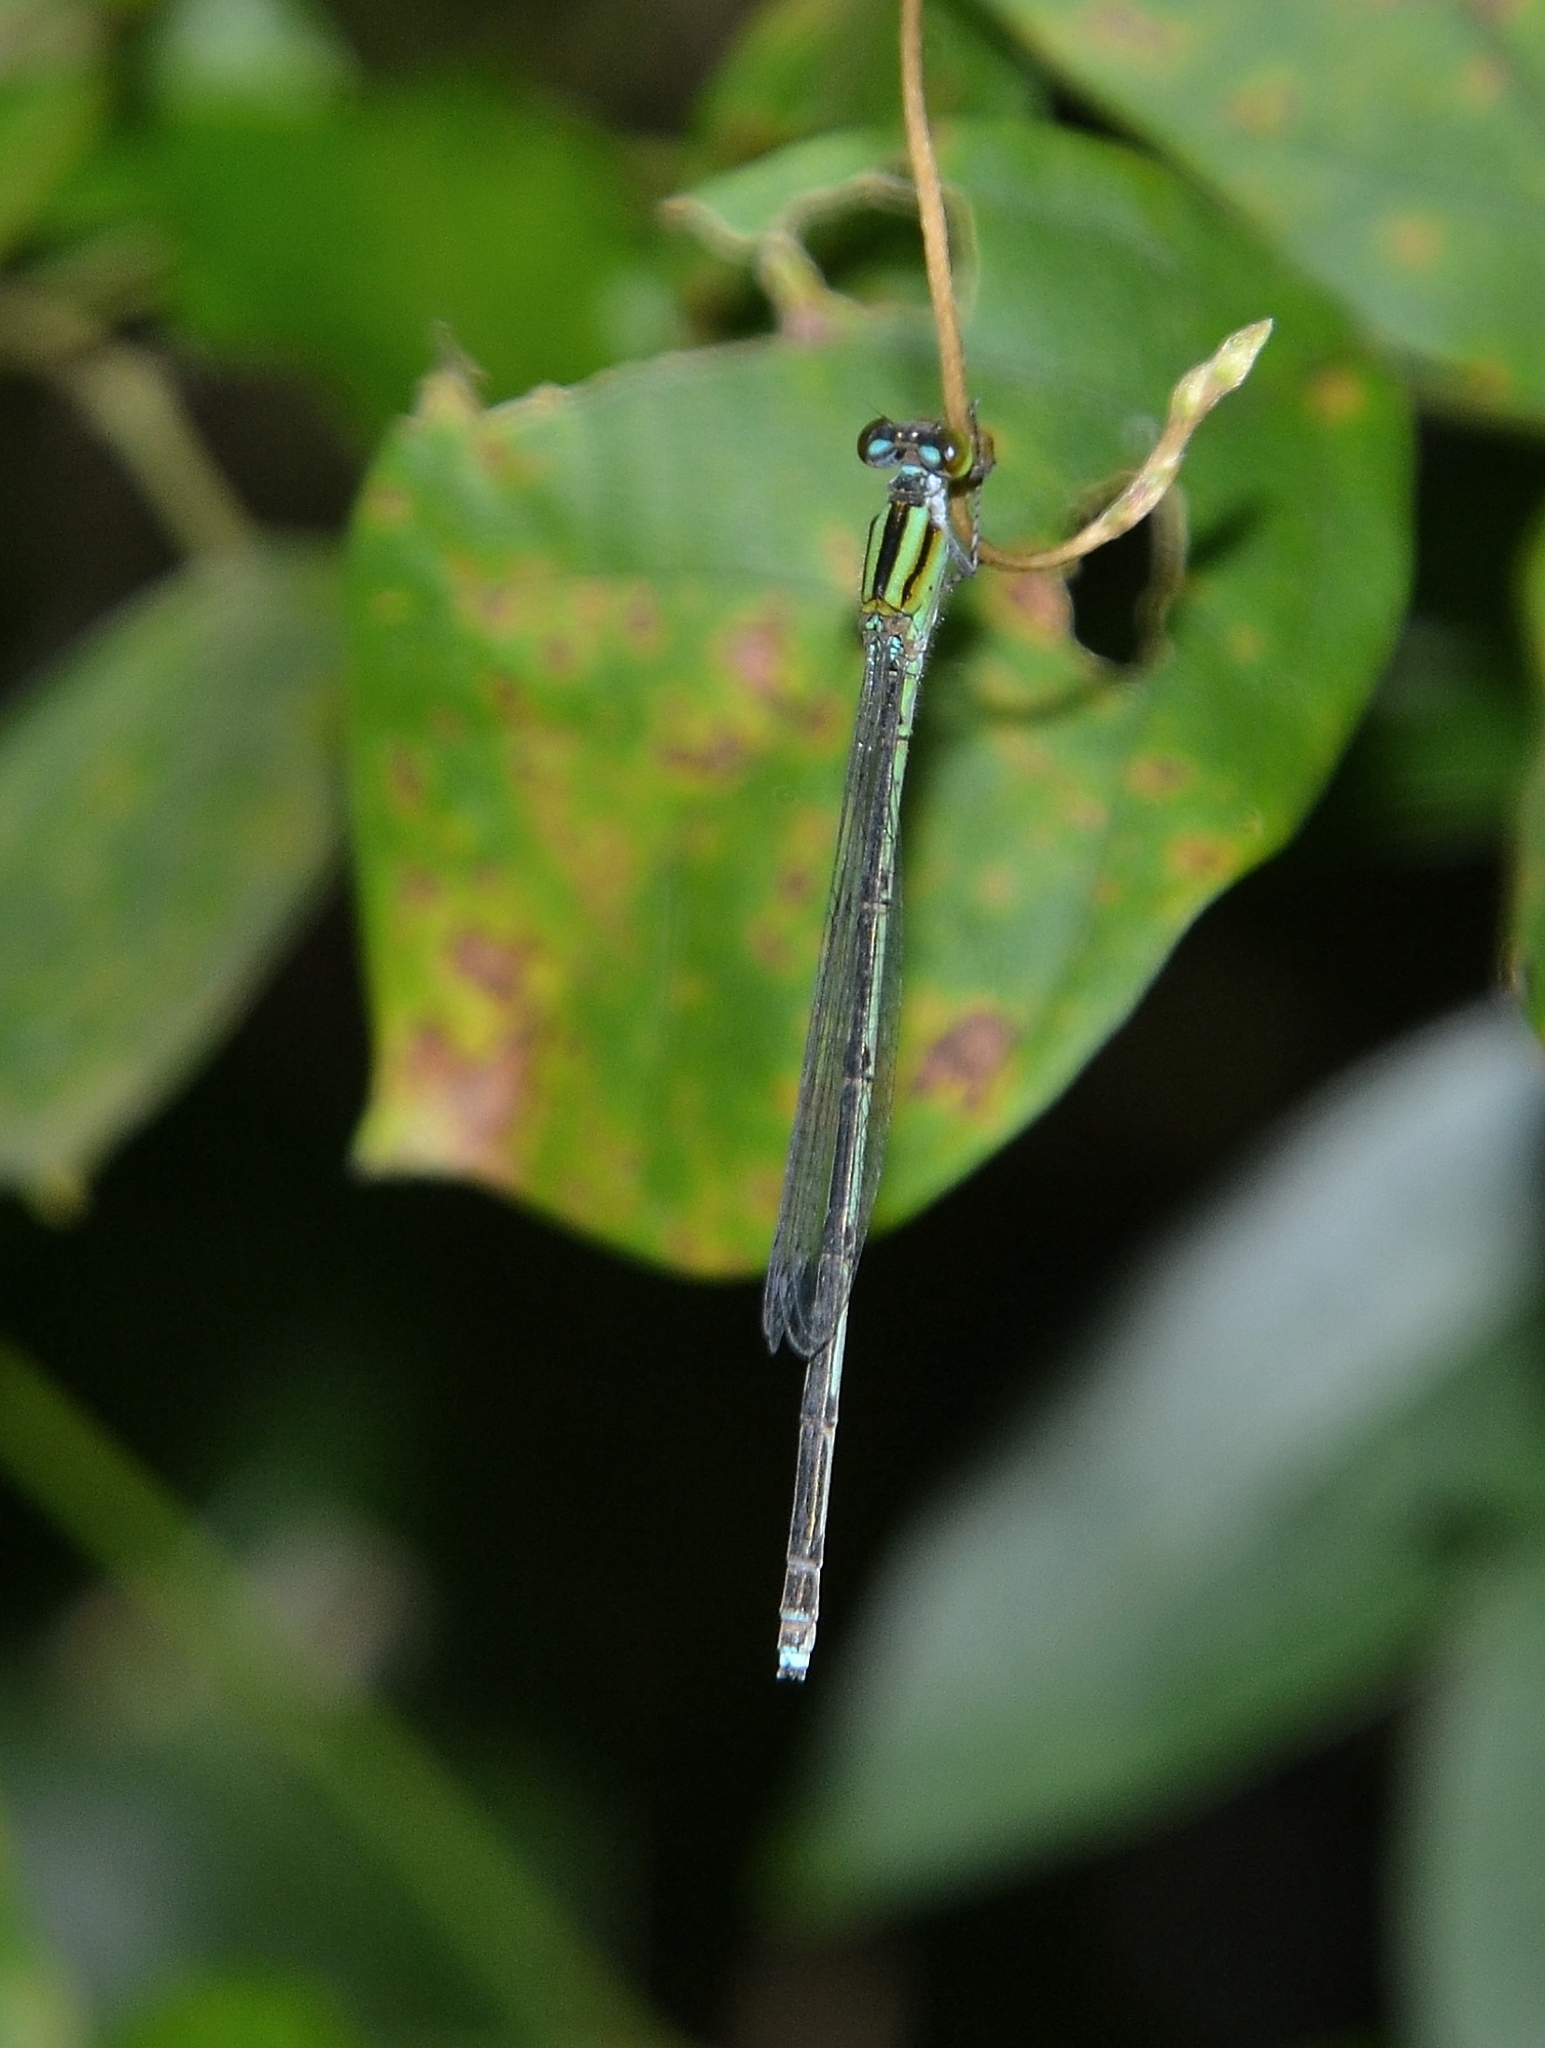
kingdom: Animalia
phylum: Arthropoda
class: Insecta
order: Odonata
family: Coenagrionidae
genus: Pseudagrion
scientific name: Pseudagrion malabaricum
